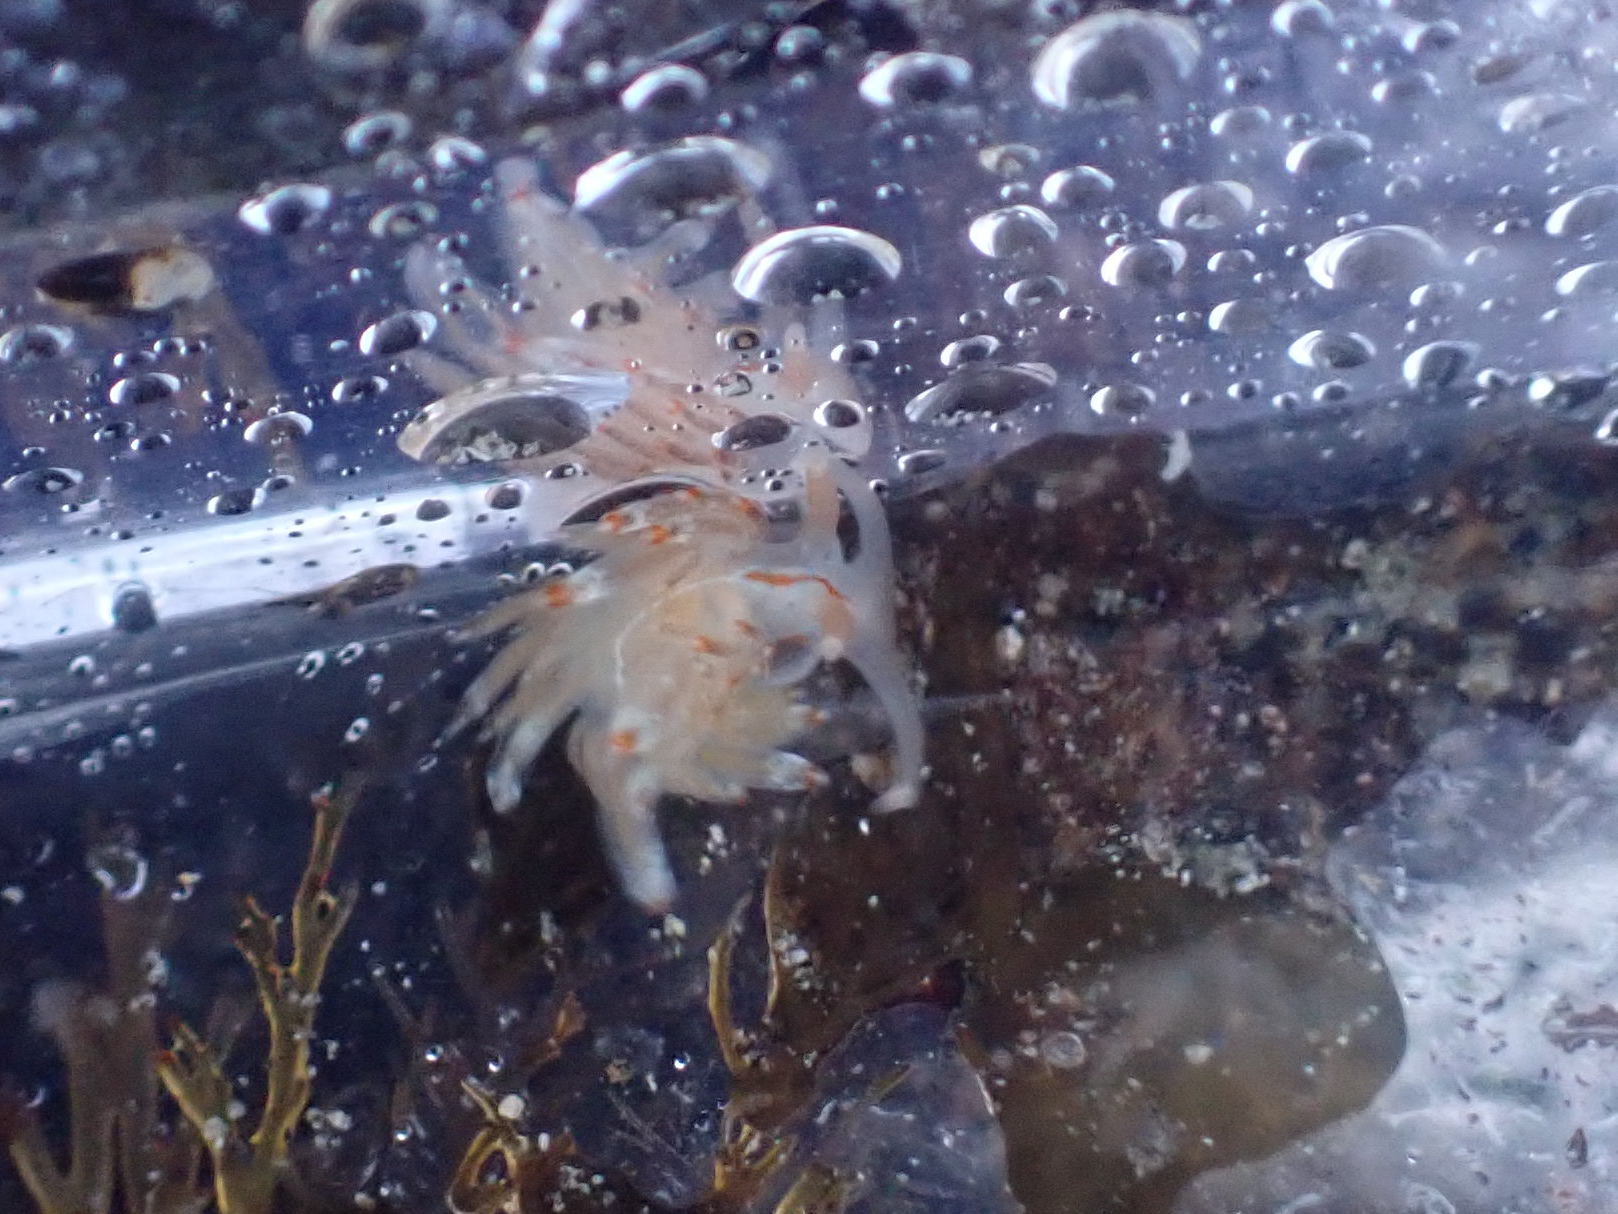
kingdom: Animalia
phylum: Mollusca
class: Gastropoda
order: Nudibranchia
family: Myrrhinidae
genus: Hermissenda
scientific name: Hermissenda opalescens
